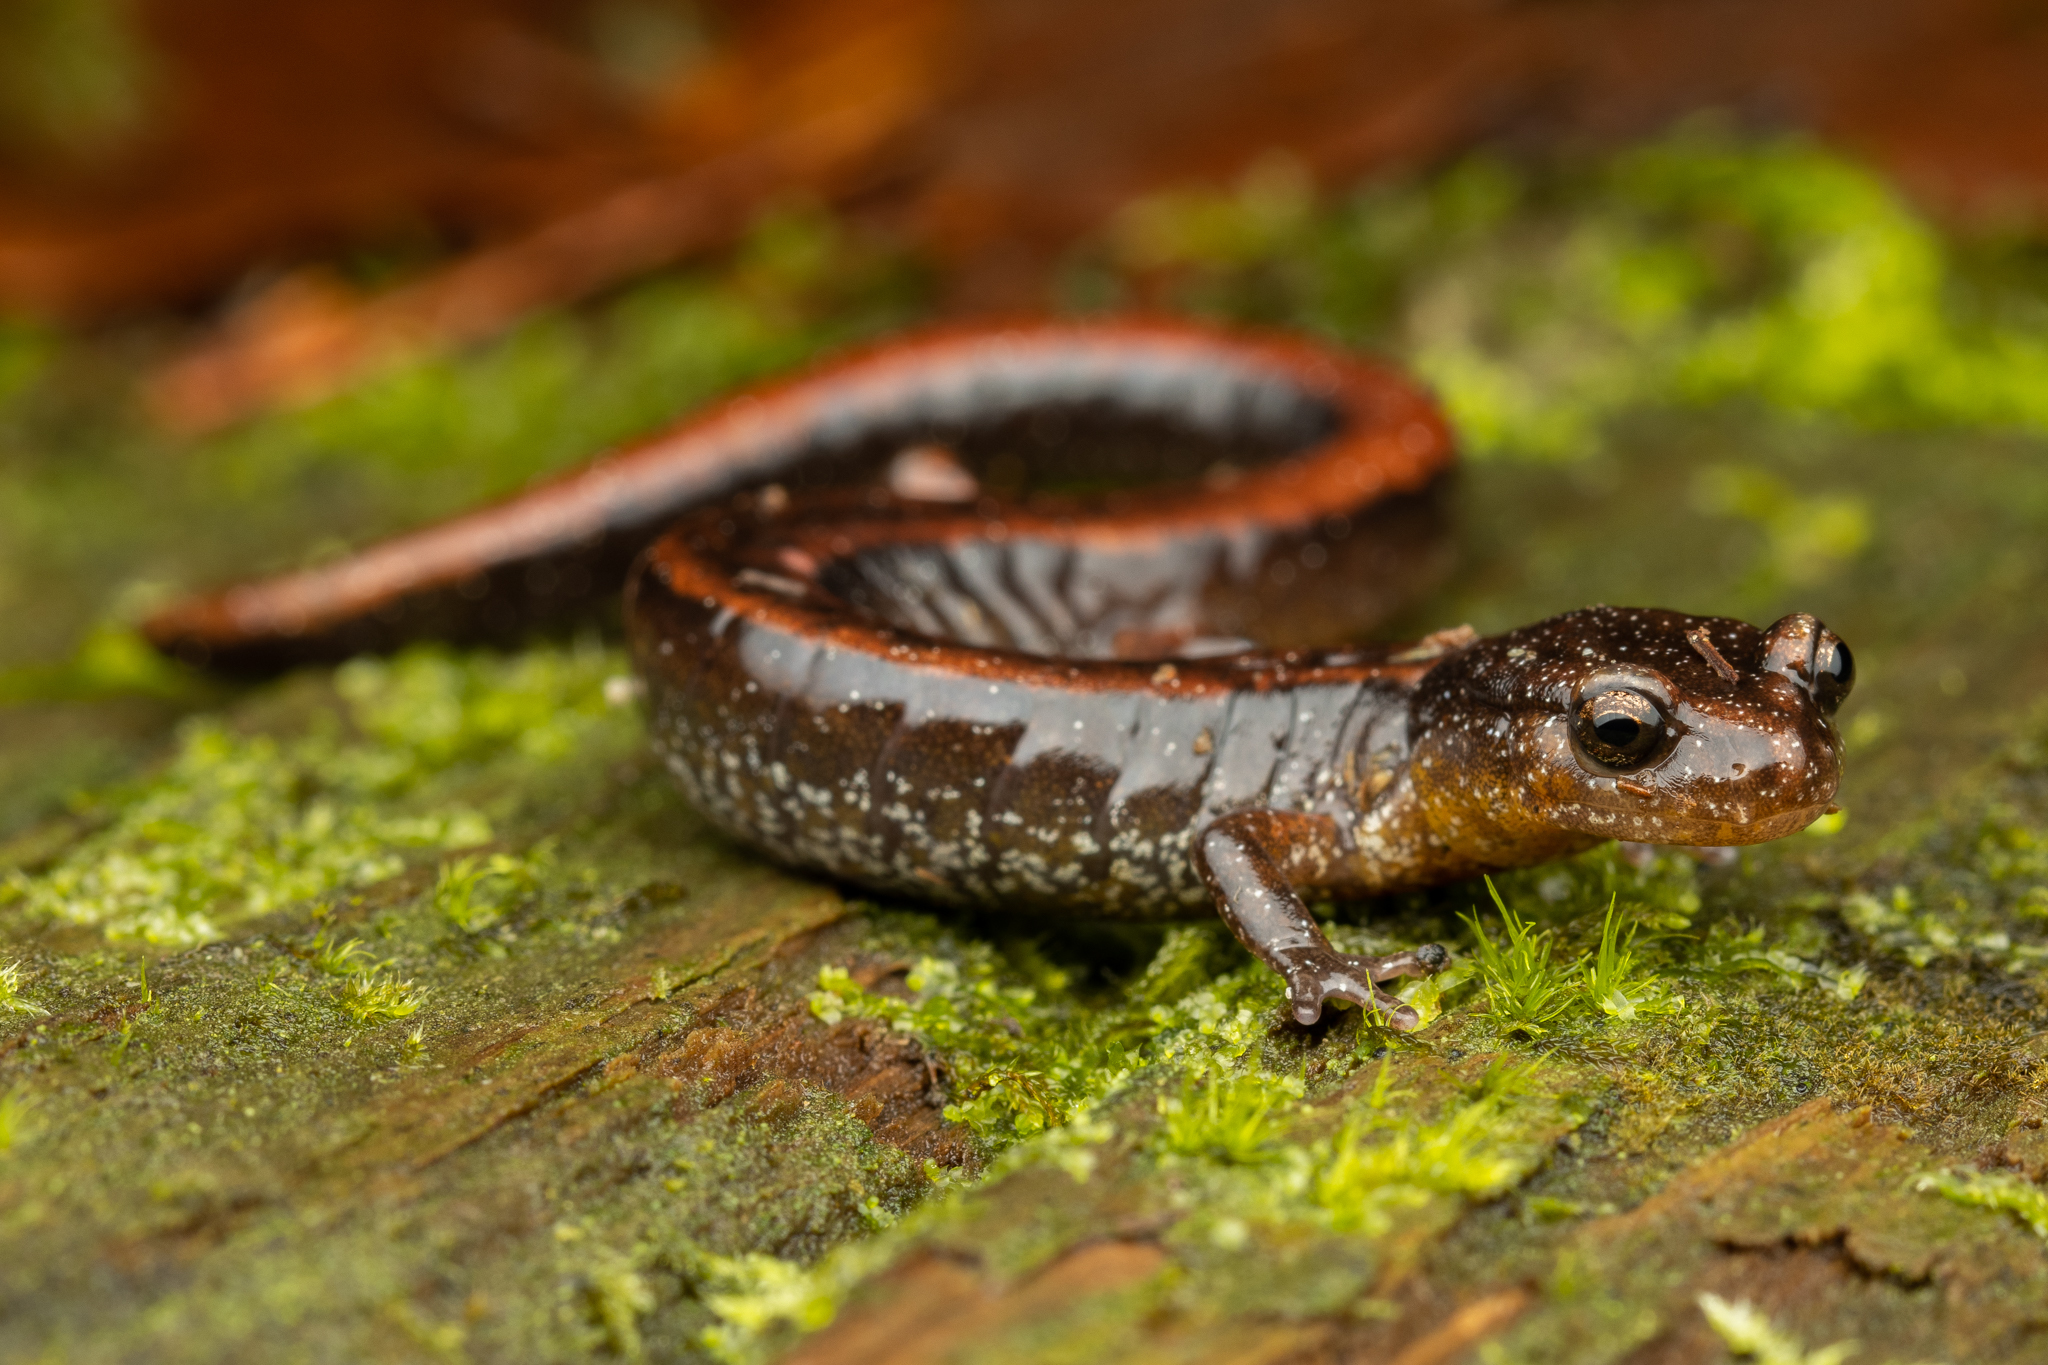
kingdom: Animalia
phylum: Chordata
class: Amphibia
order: Caudata
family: Plethodontidae
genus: Plethodon
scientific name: Plethodon vehiculum
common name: Western red-backed salamander
